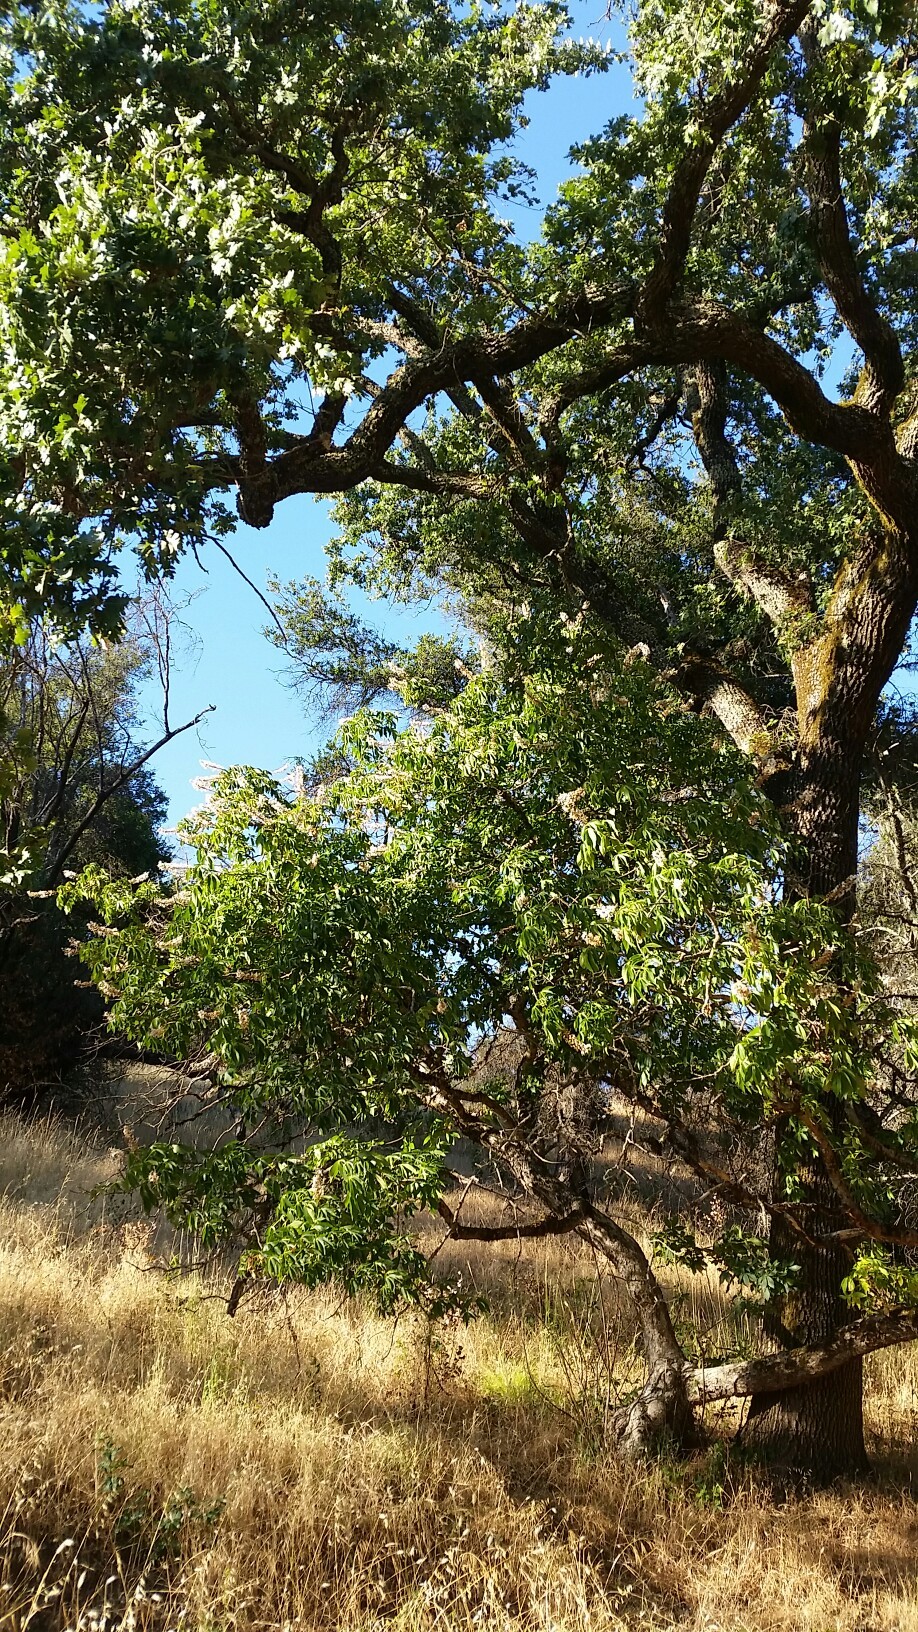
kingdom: Plantae
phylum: Tracheophyta
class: Magnoliopsida
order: Sapindales
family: Sapindaceae
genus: Aesculus
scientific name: Aesculus californica
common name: California buckeye
